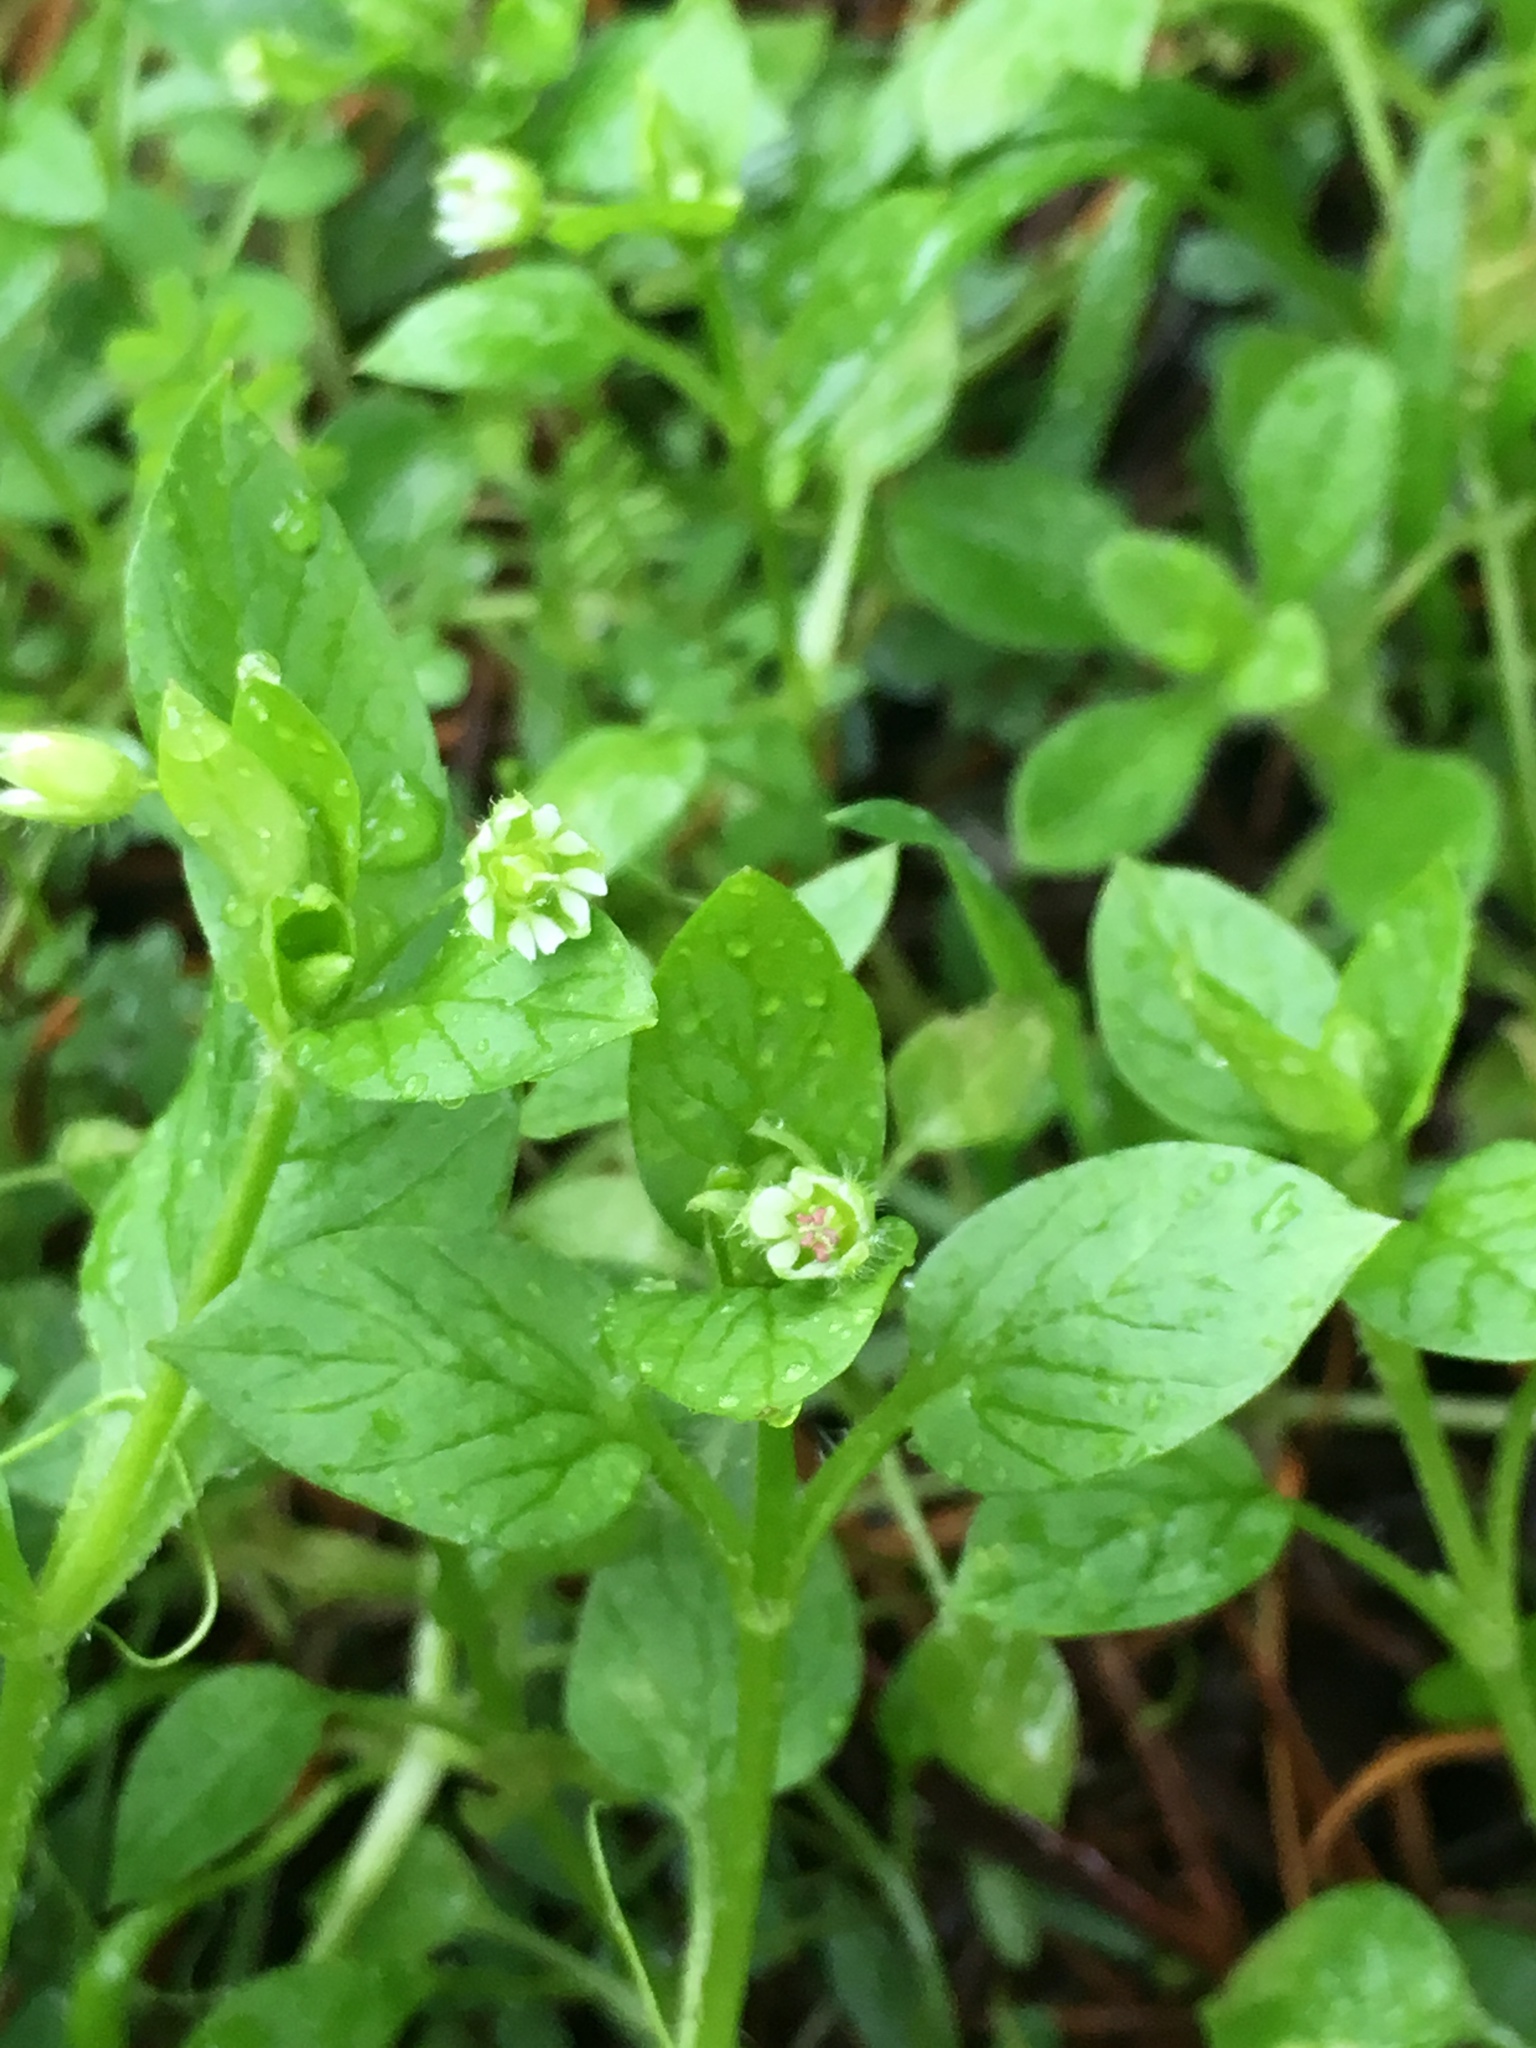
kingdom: Plantae
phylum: Tracheophyta
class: Magnoliopsida
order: Caryophyllales
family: Caryophyllaceae
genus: Stellaria
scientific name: Stellaria media
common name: Common chickweed
